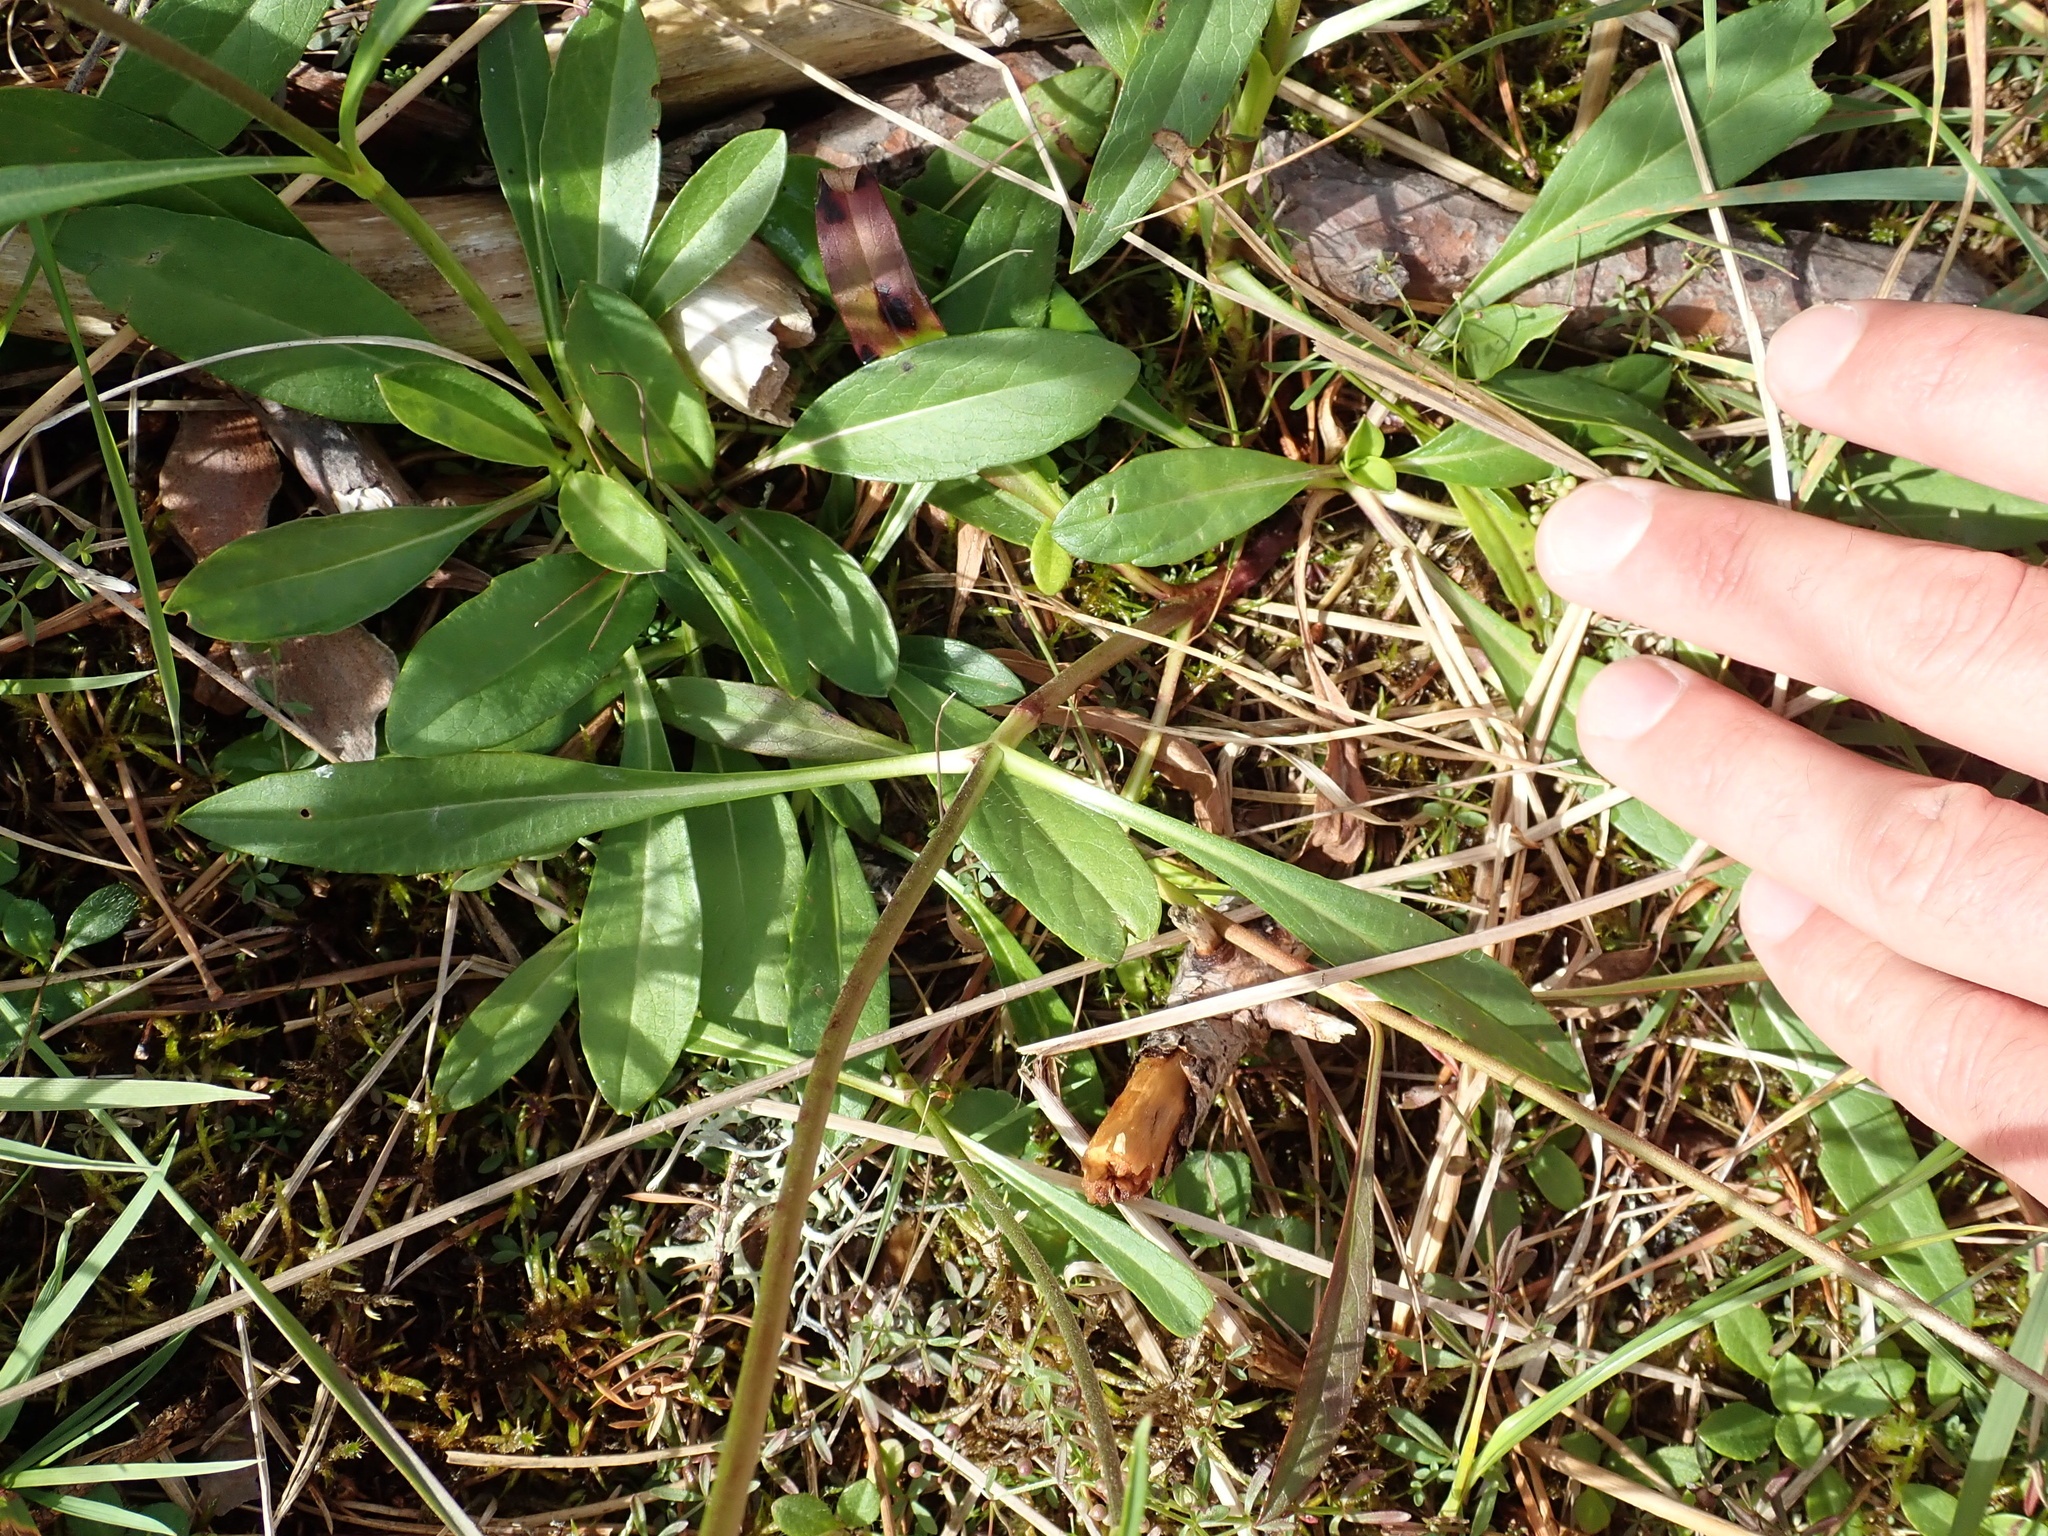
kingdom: Plantae
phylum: Tracheophyta
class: Magnoliopsida
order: Dipsacales
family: Caprifoliaceae
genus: Succisa
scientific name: Succisa pratensis
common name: Devil's-bit
